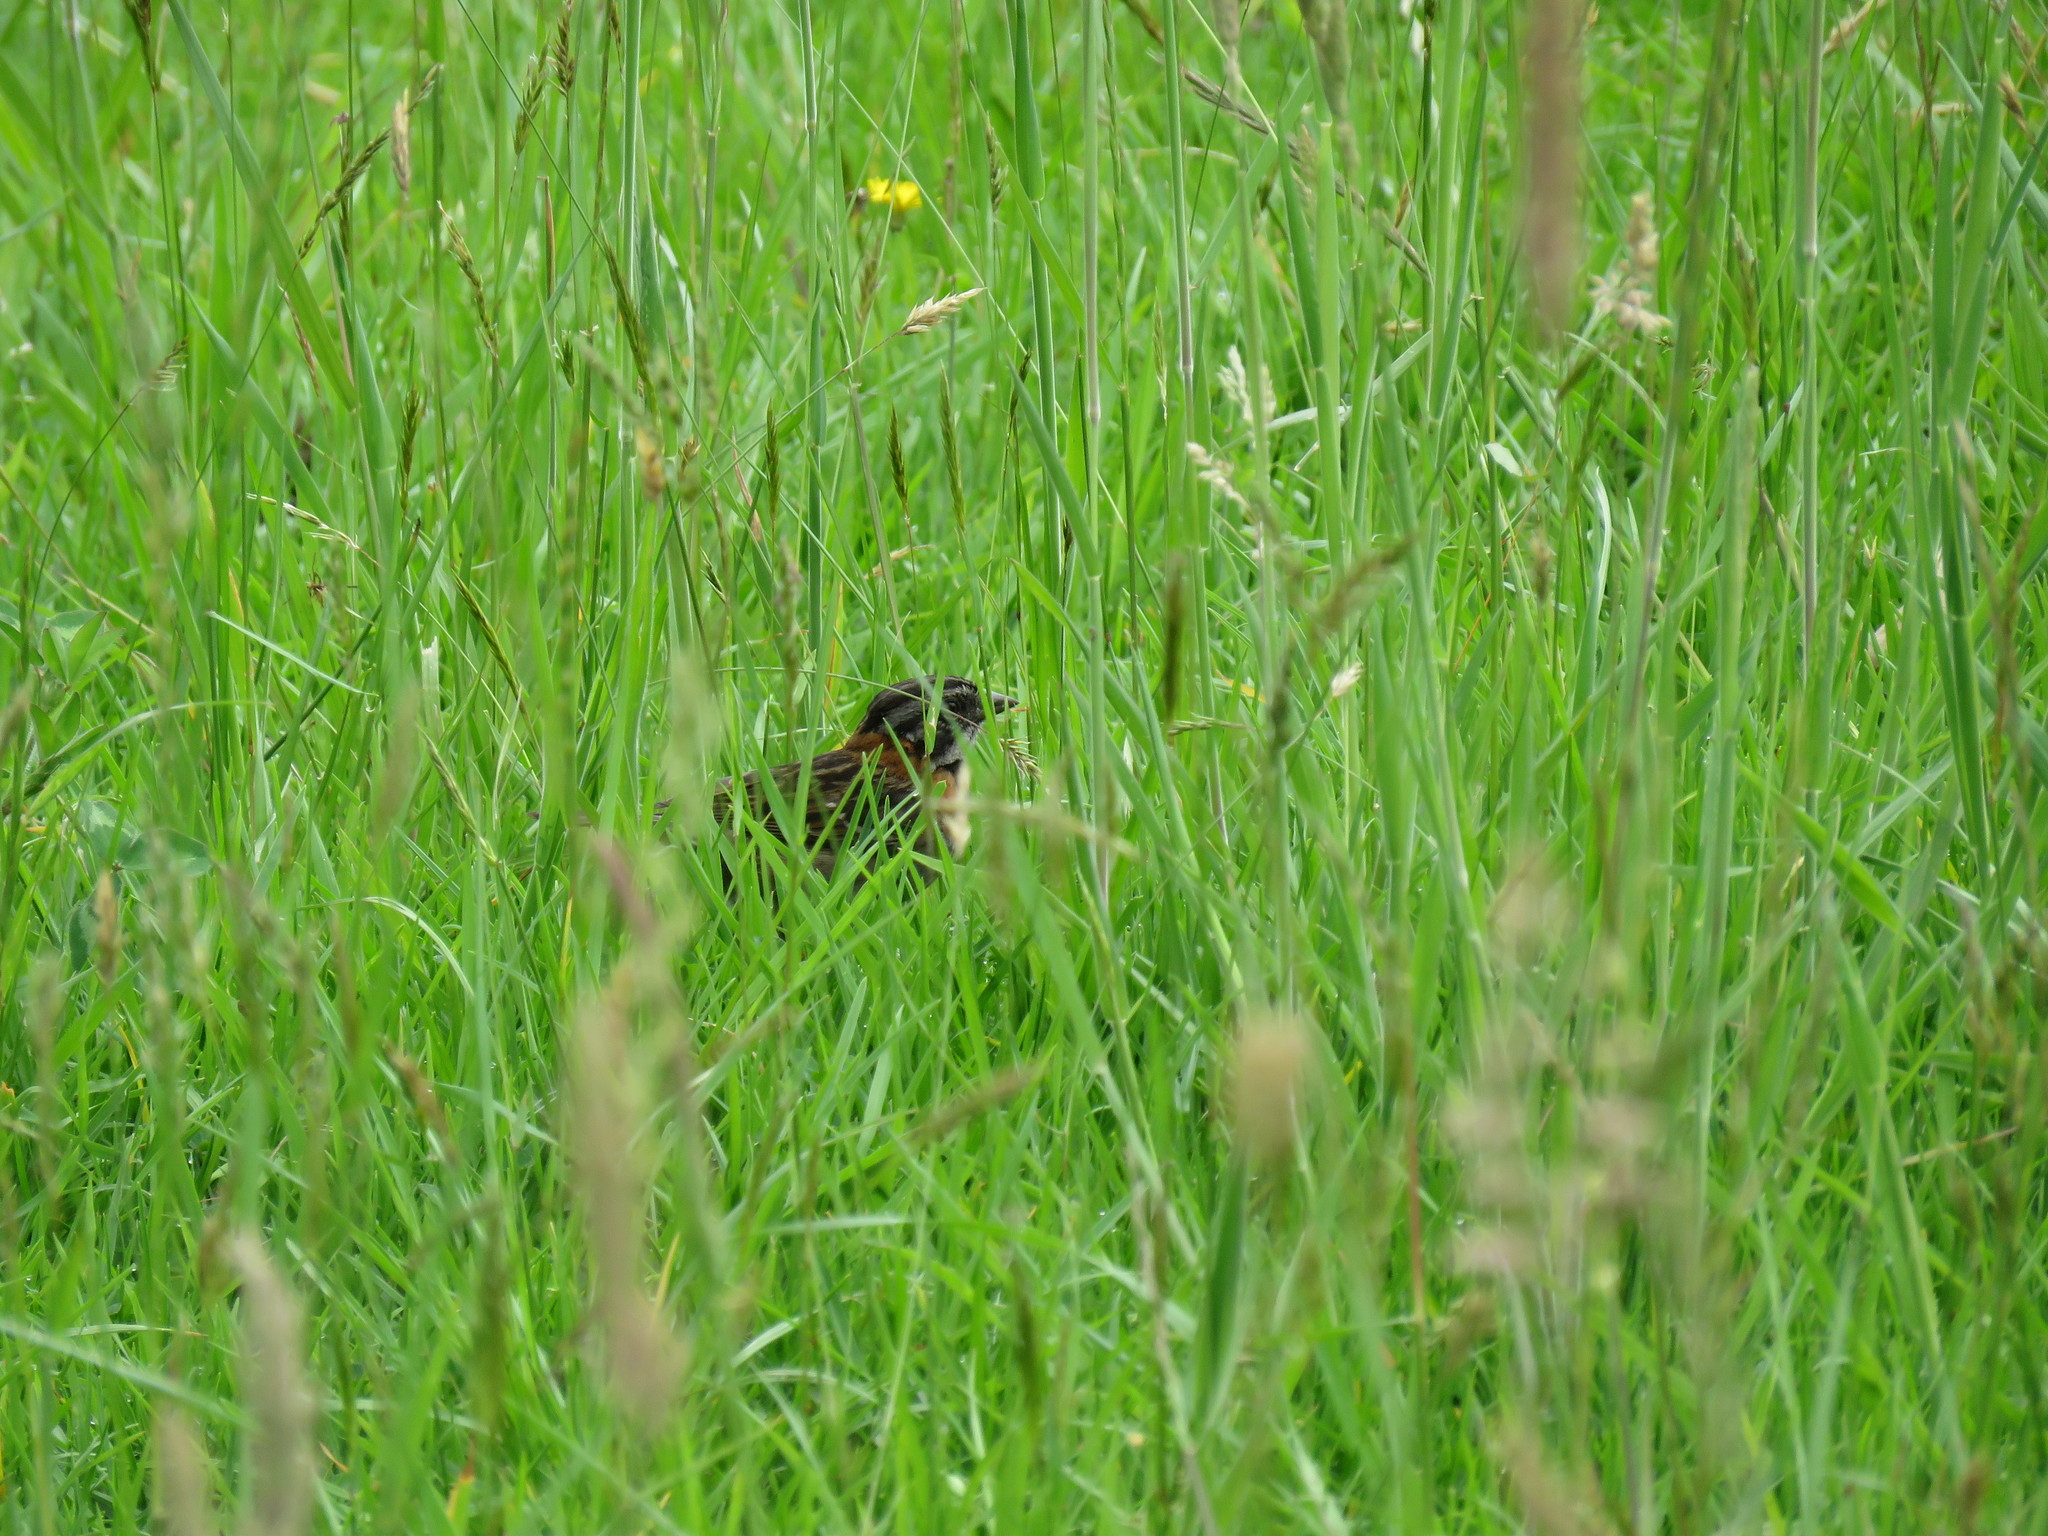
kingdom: Animalia
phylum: Chordata
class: Aves
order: Passeriformes
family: Passerellidae
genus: Zonotrichia
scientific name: Zonotrichia capensis
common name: Rufous-collared sparrow
